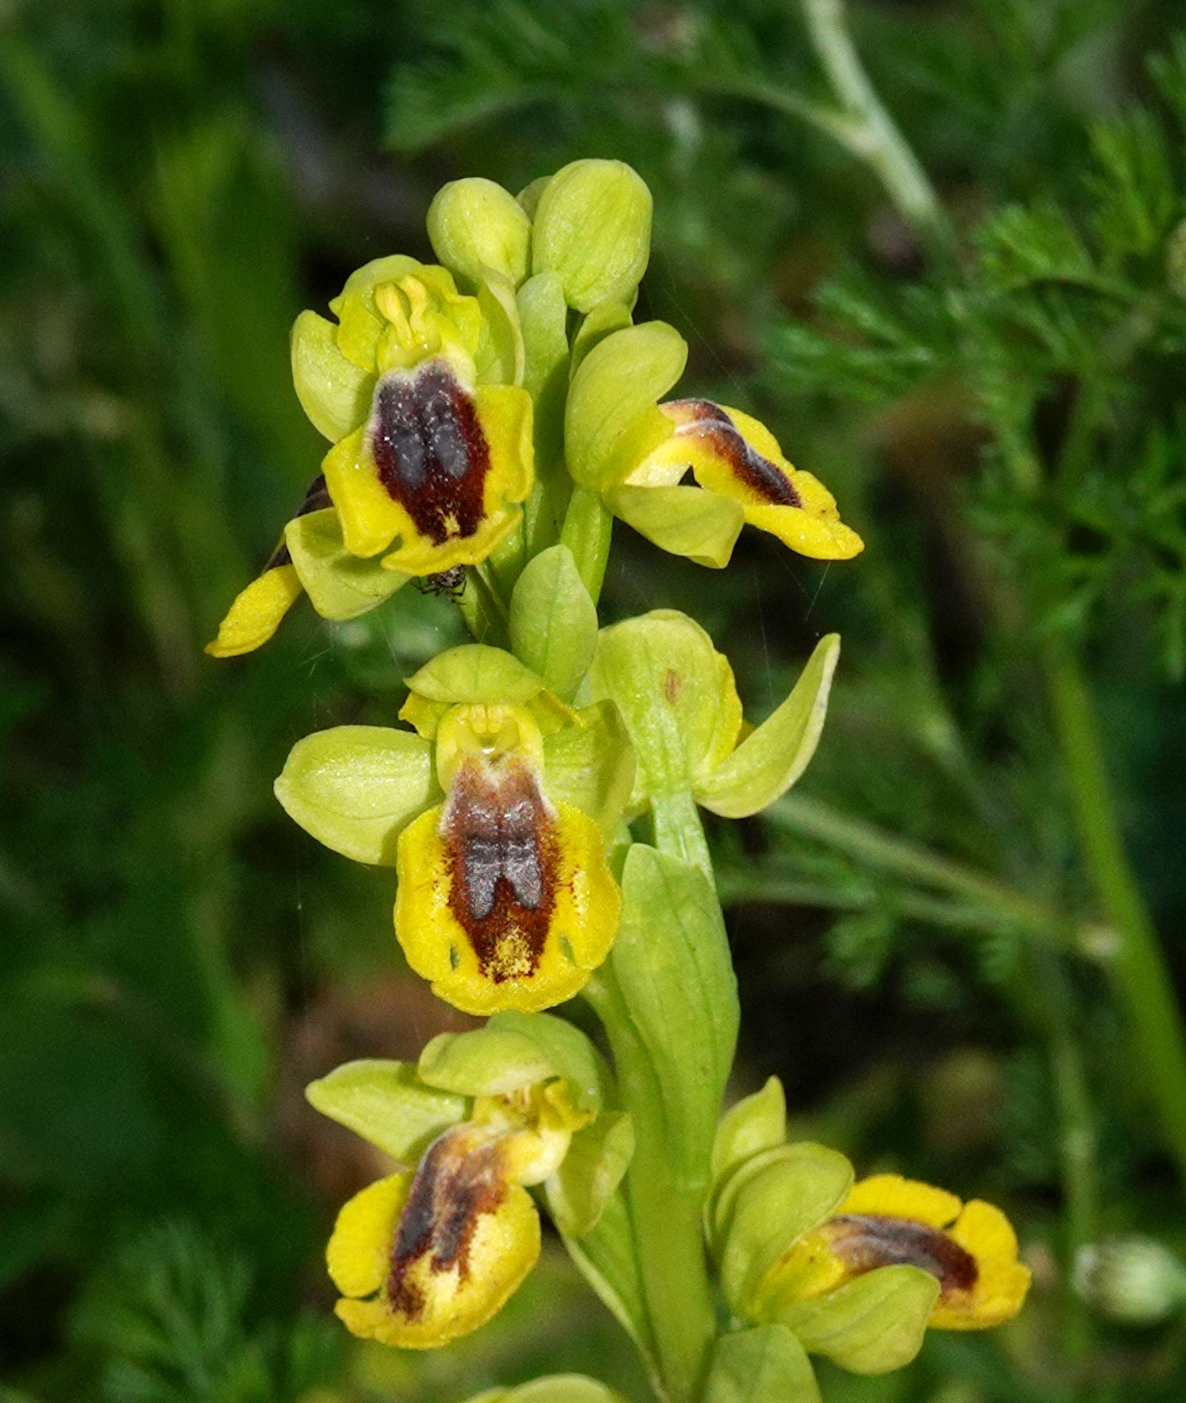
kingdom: Plantae
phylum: Tracheophyta
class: Liliopsida
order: Asparagales
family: Orchidaceae
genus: Ophrys
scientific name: Ophrys lutea
